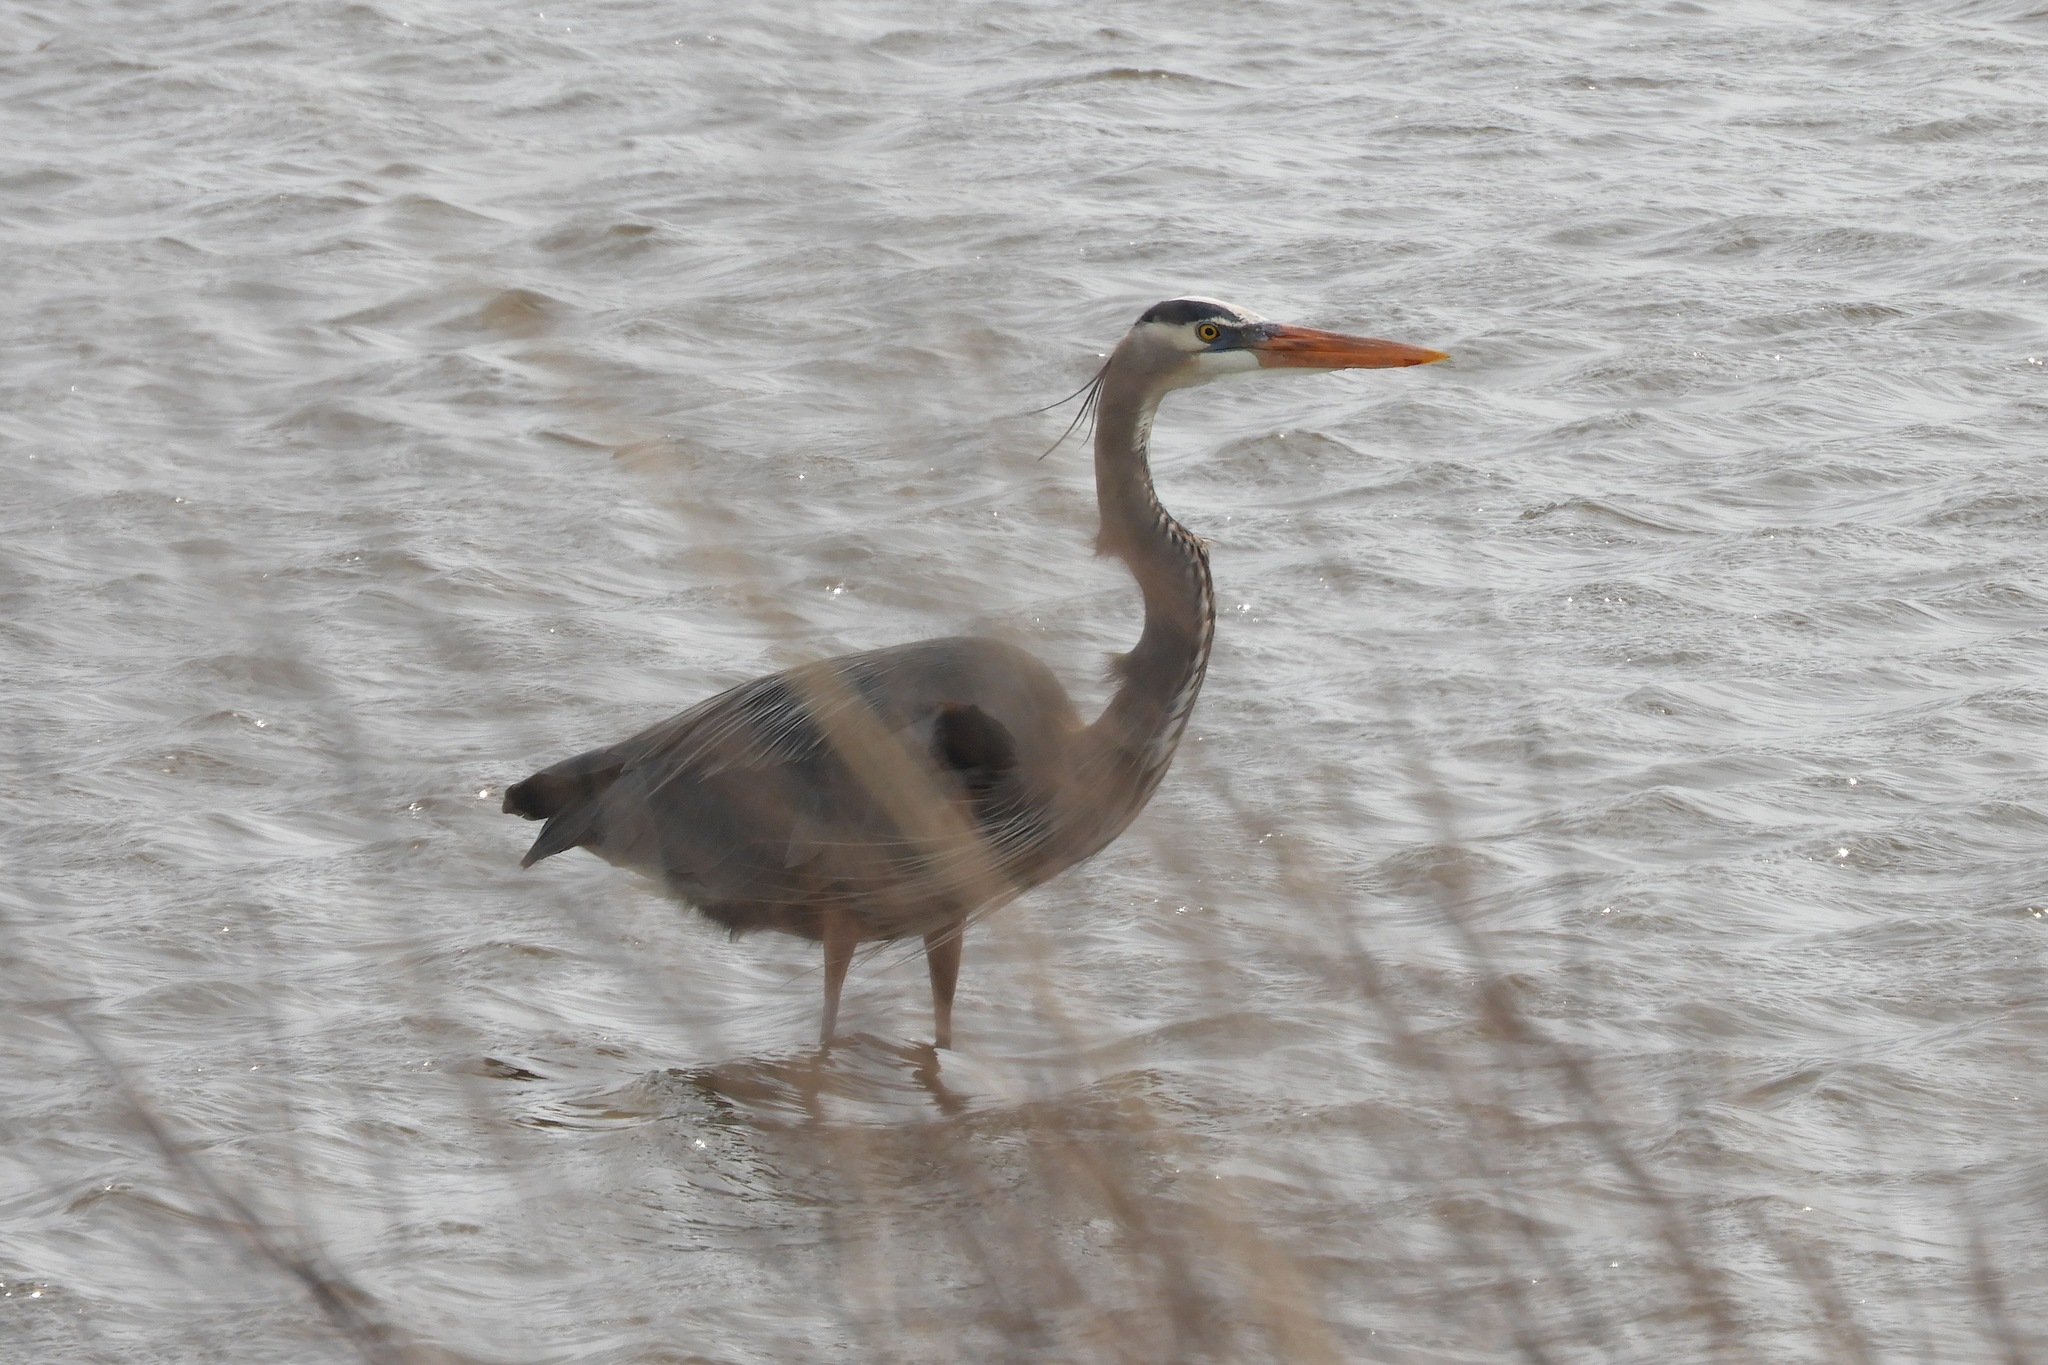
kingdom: Animalia
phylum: Chordata
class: Aves
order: Pelecaniformes
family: Ardeidae
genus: Ardea
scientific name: Ardea herodias
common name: Great blue heron
